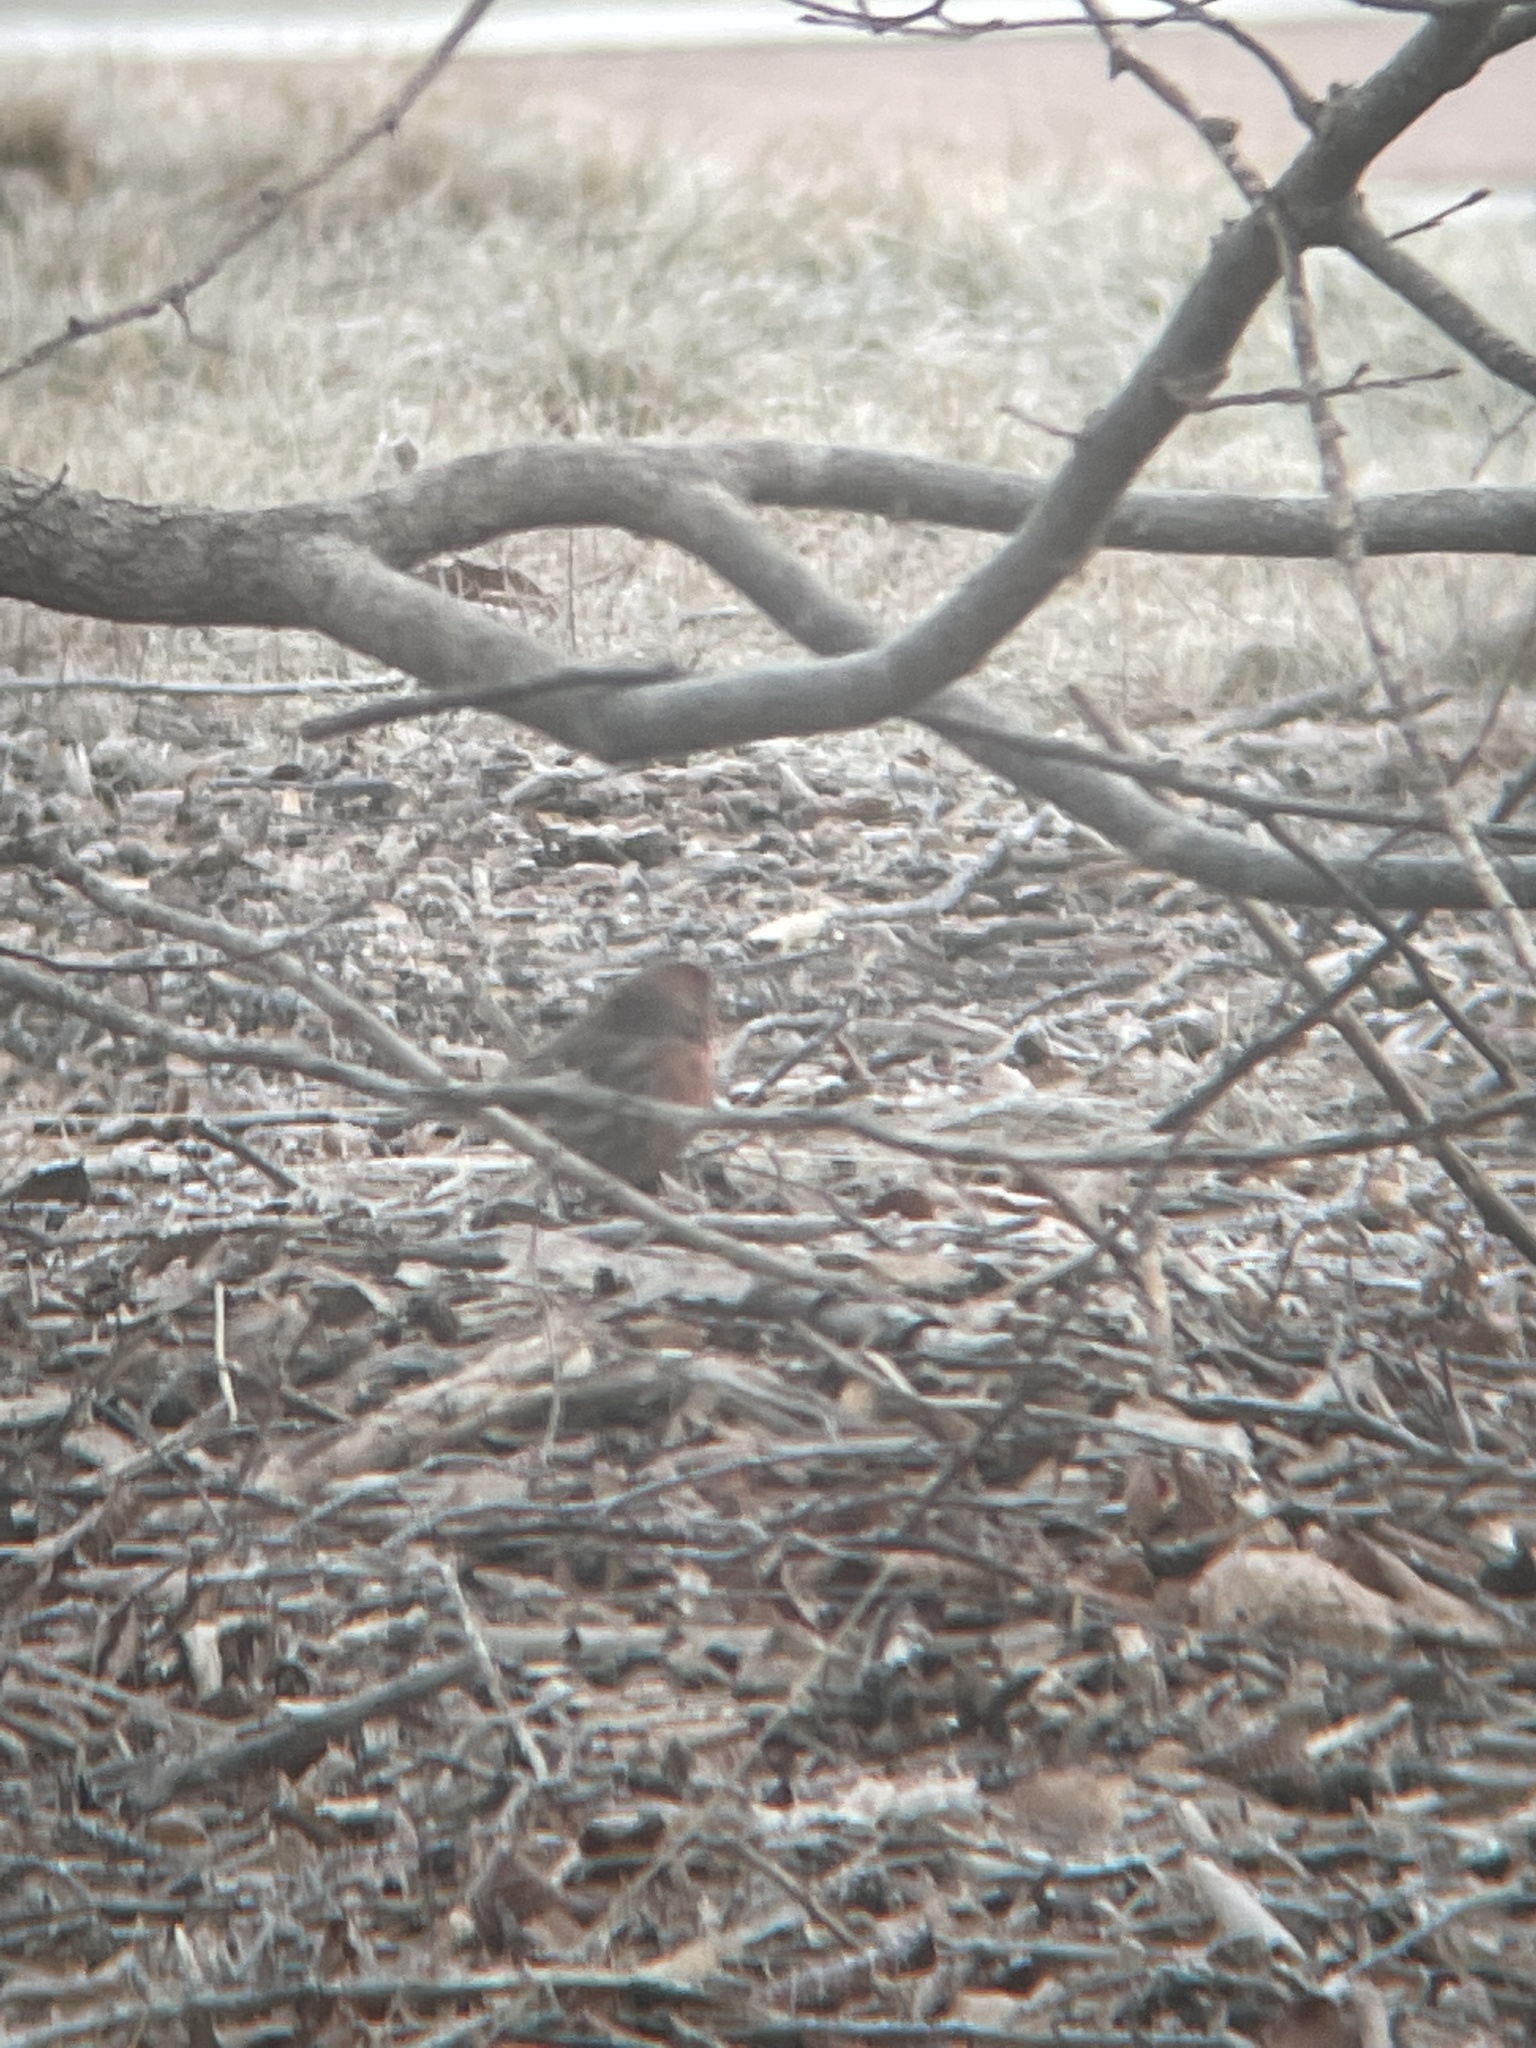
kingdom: Animalia
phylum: Chordata
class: Aves
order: Passeriformes
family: Fringillidae
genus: Haemorhous
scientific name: Haemorhous mexicanus
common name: House finch
